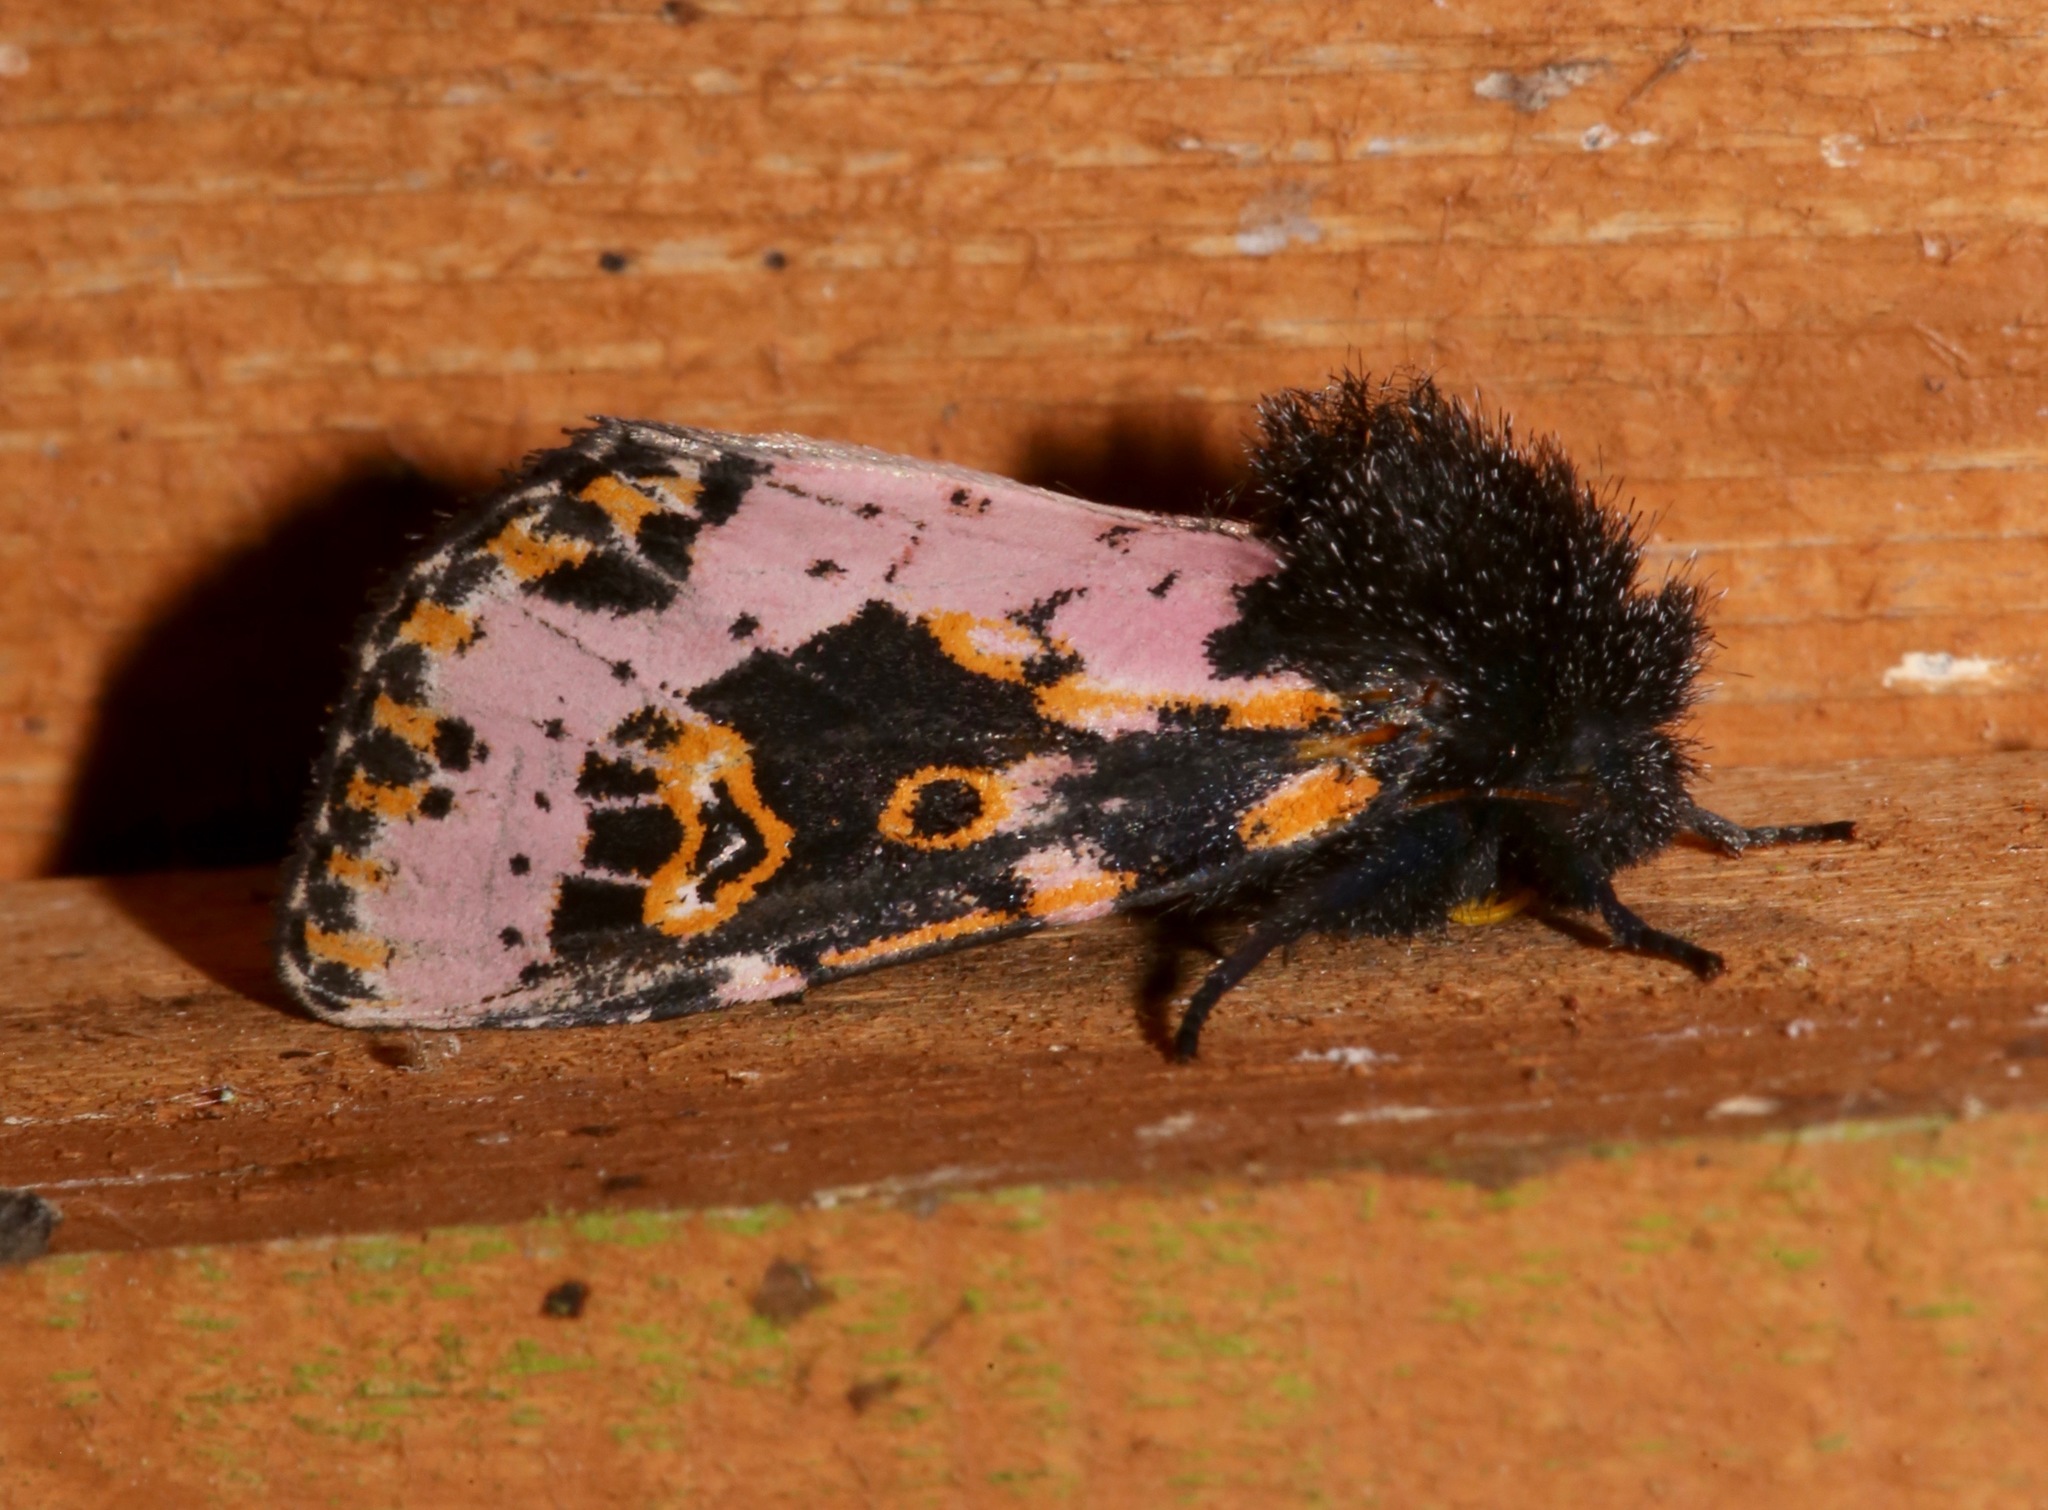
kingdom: Animalia
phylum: Arthropoda
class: Insecta
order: Lepidoptera
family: Noctuidae
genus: Xanthopastis
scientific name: Xanthopastis regnatrix
